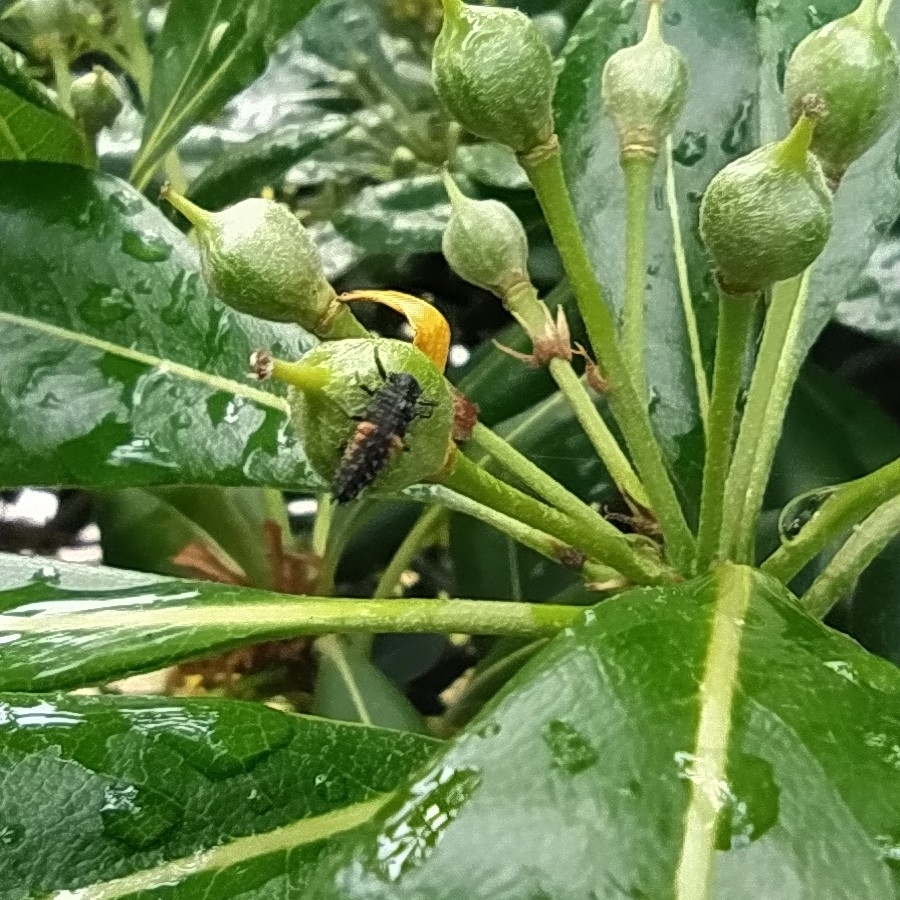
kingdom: Animalia
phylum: Arthropoda
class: Insecta
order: Coleoptera
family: Coccinellidae
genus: Harmonia
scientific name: Harmonia axyridis
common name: Harlequin ladybird
